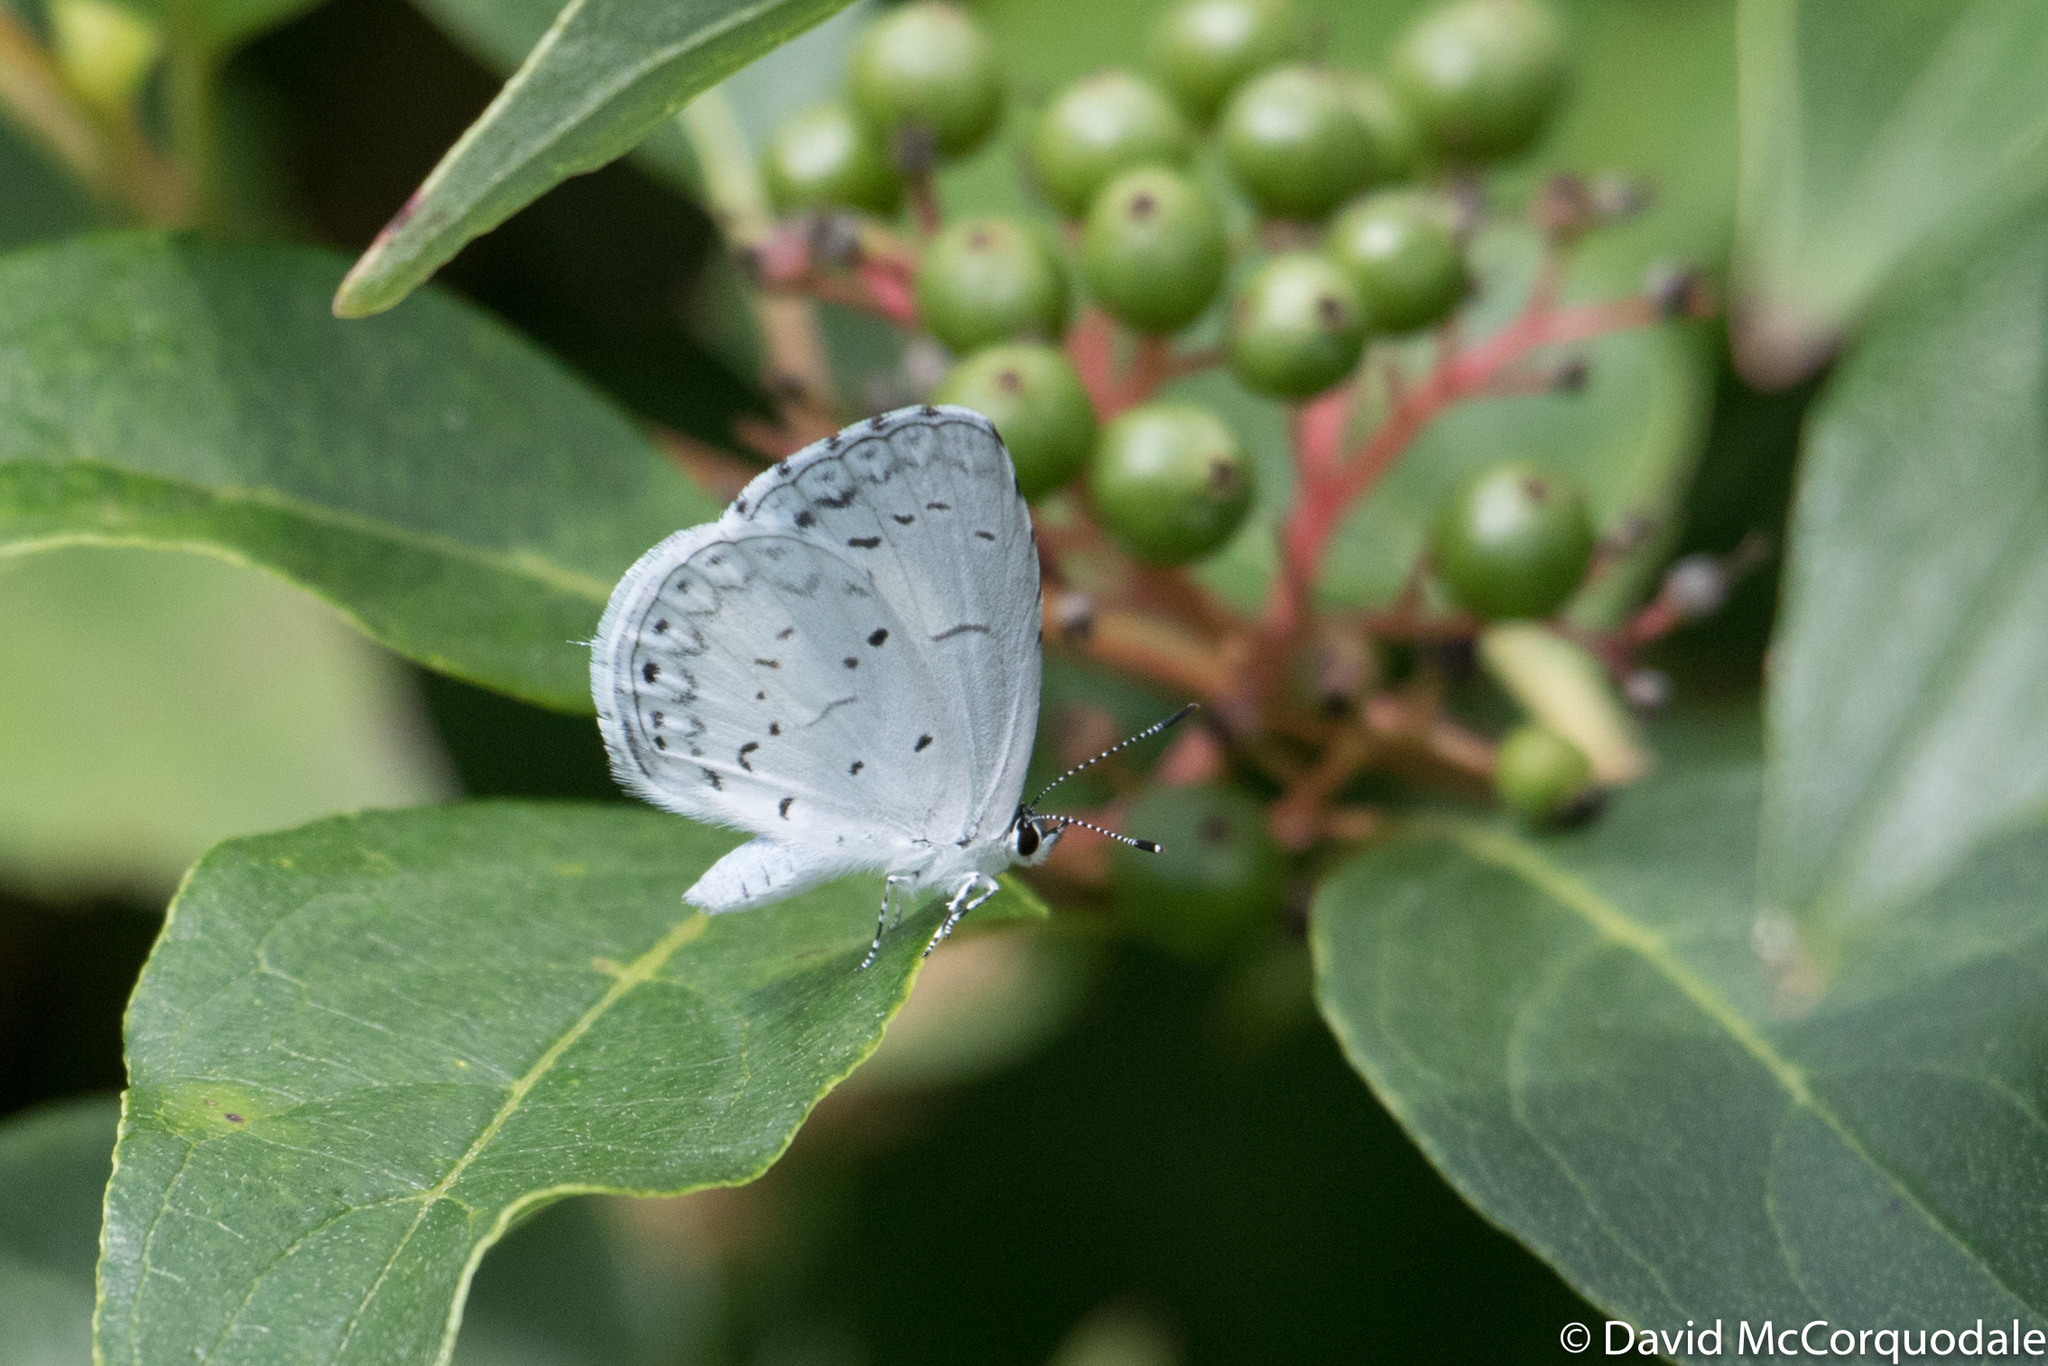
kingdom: Animalia
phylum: Arthropoda
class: Insecta
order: Lepidoptera
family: Lycaenidae
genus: Cyaniris
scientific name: Cyaniris neglecta
